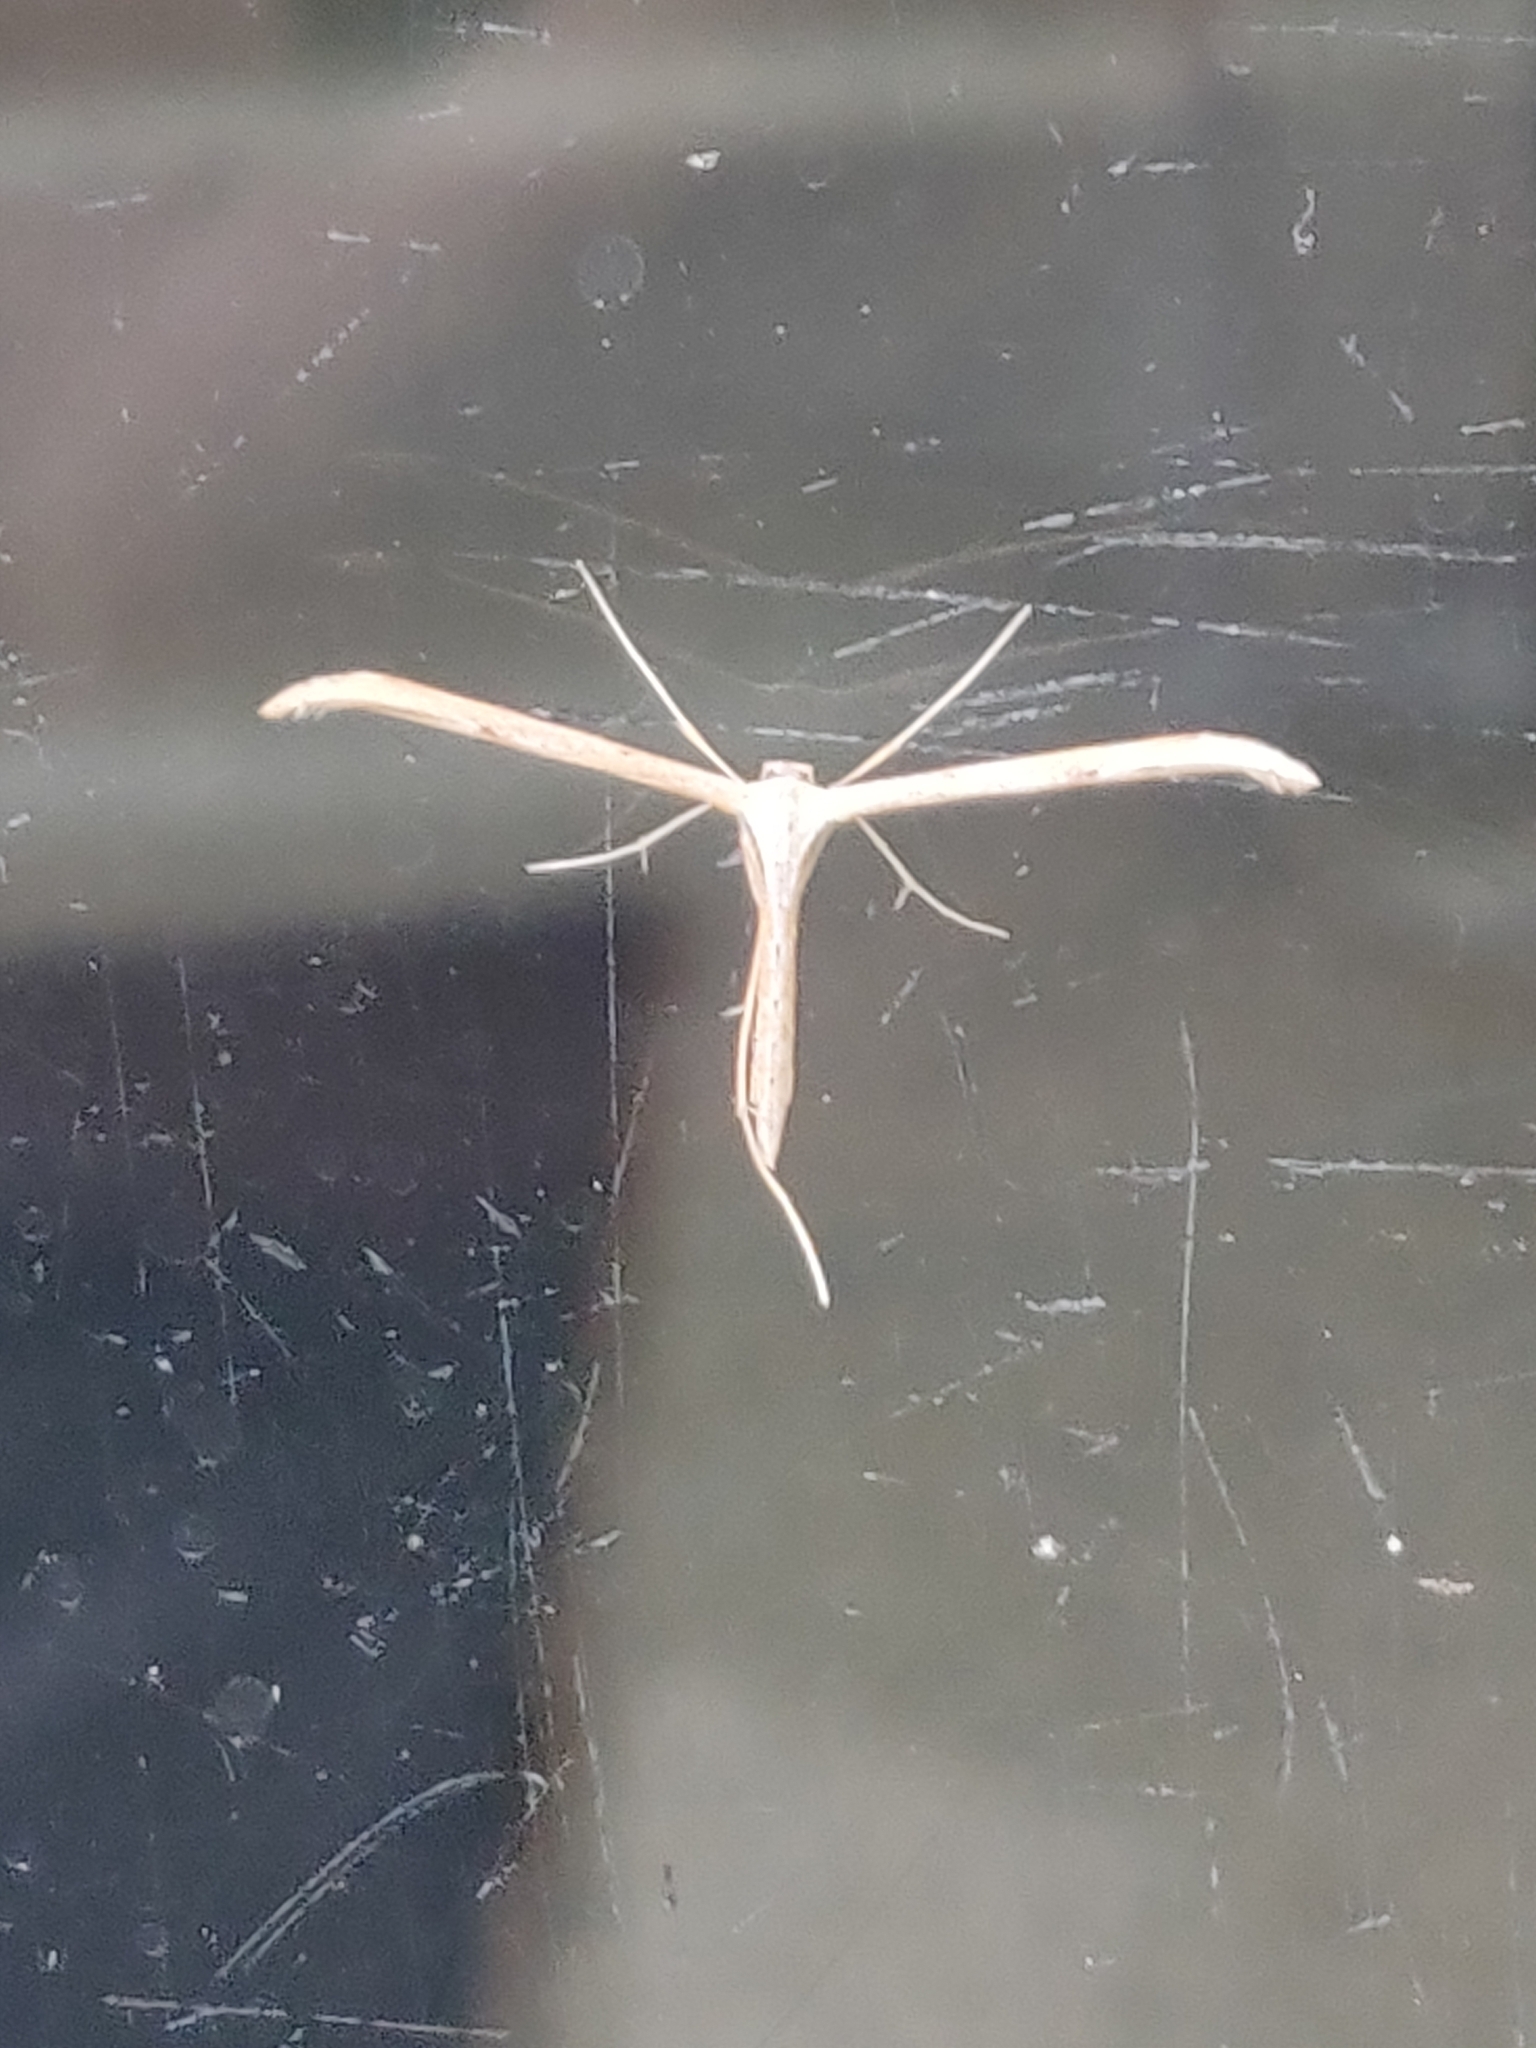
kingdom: Animalia
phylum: Arthropoda
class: Insecta
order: Lepidoptera
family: Pterophoridae
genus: Emmelina
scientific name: Emmelina monodactyla
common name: Common plume
